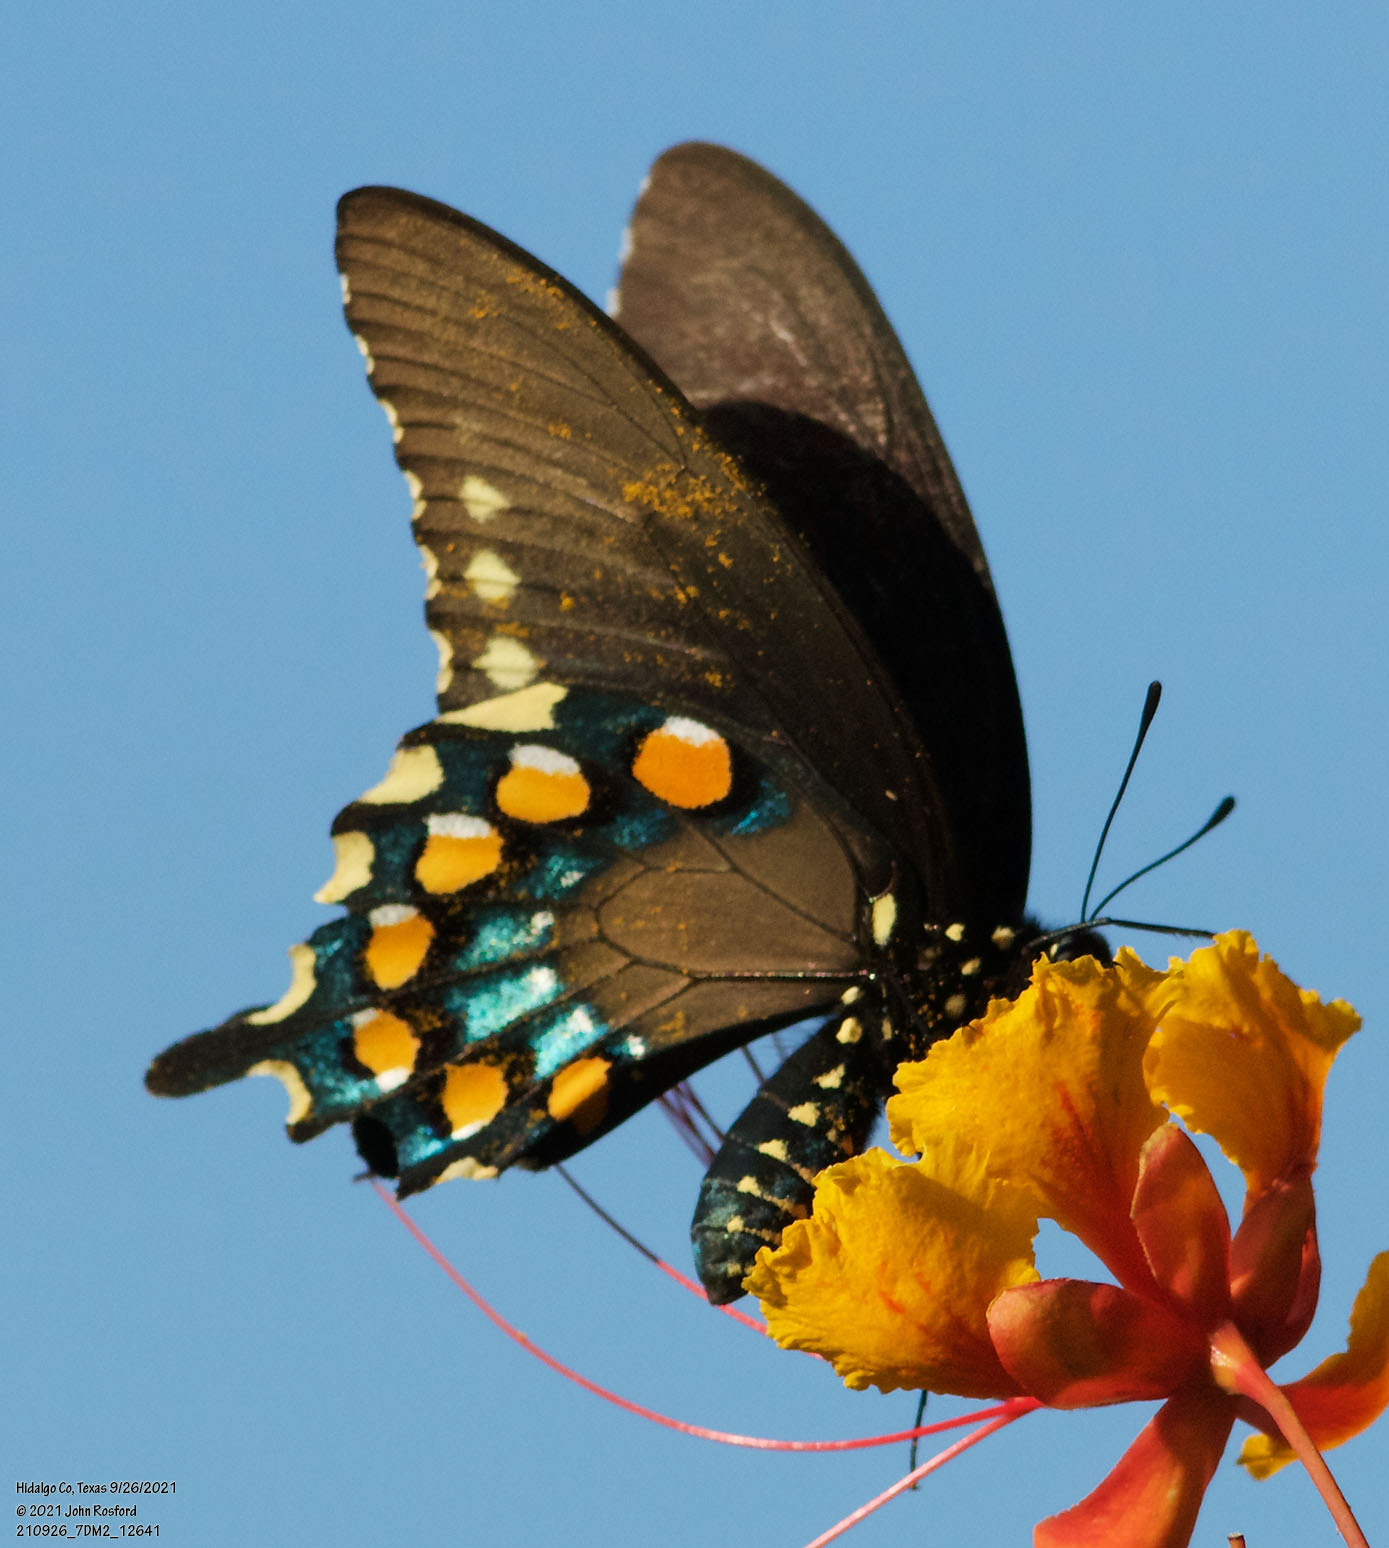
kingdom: Animalia
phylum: Arthropoda
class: Insecta
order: Lepidoptera
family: Papilionidae
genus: Battus
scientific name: Battus philenor
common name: Pipevine swallowtail
